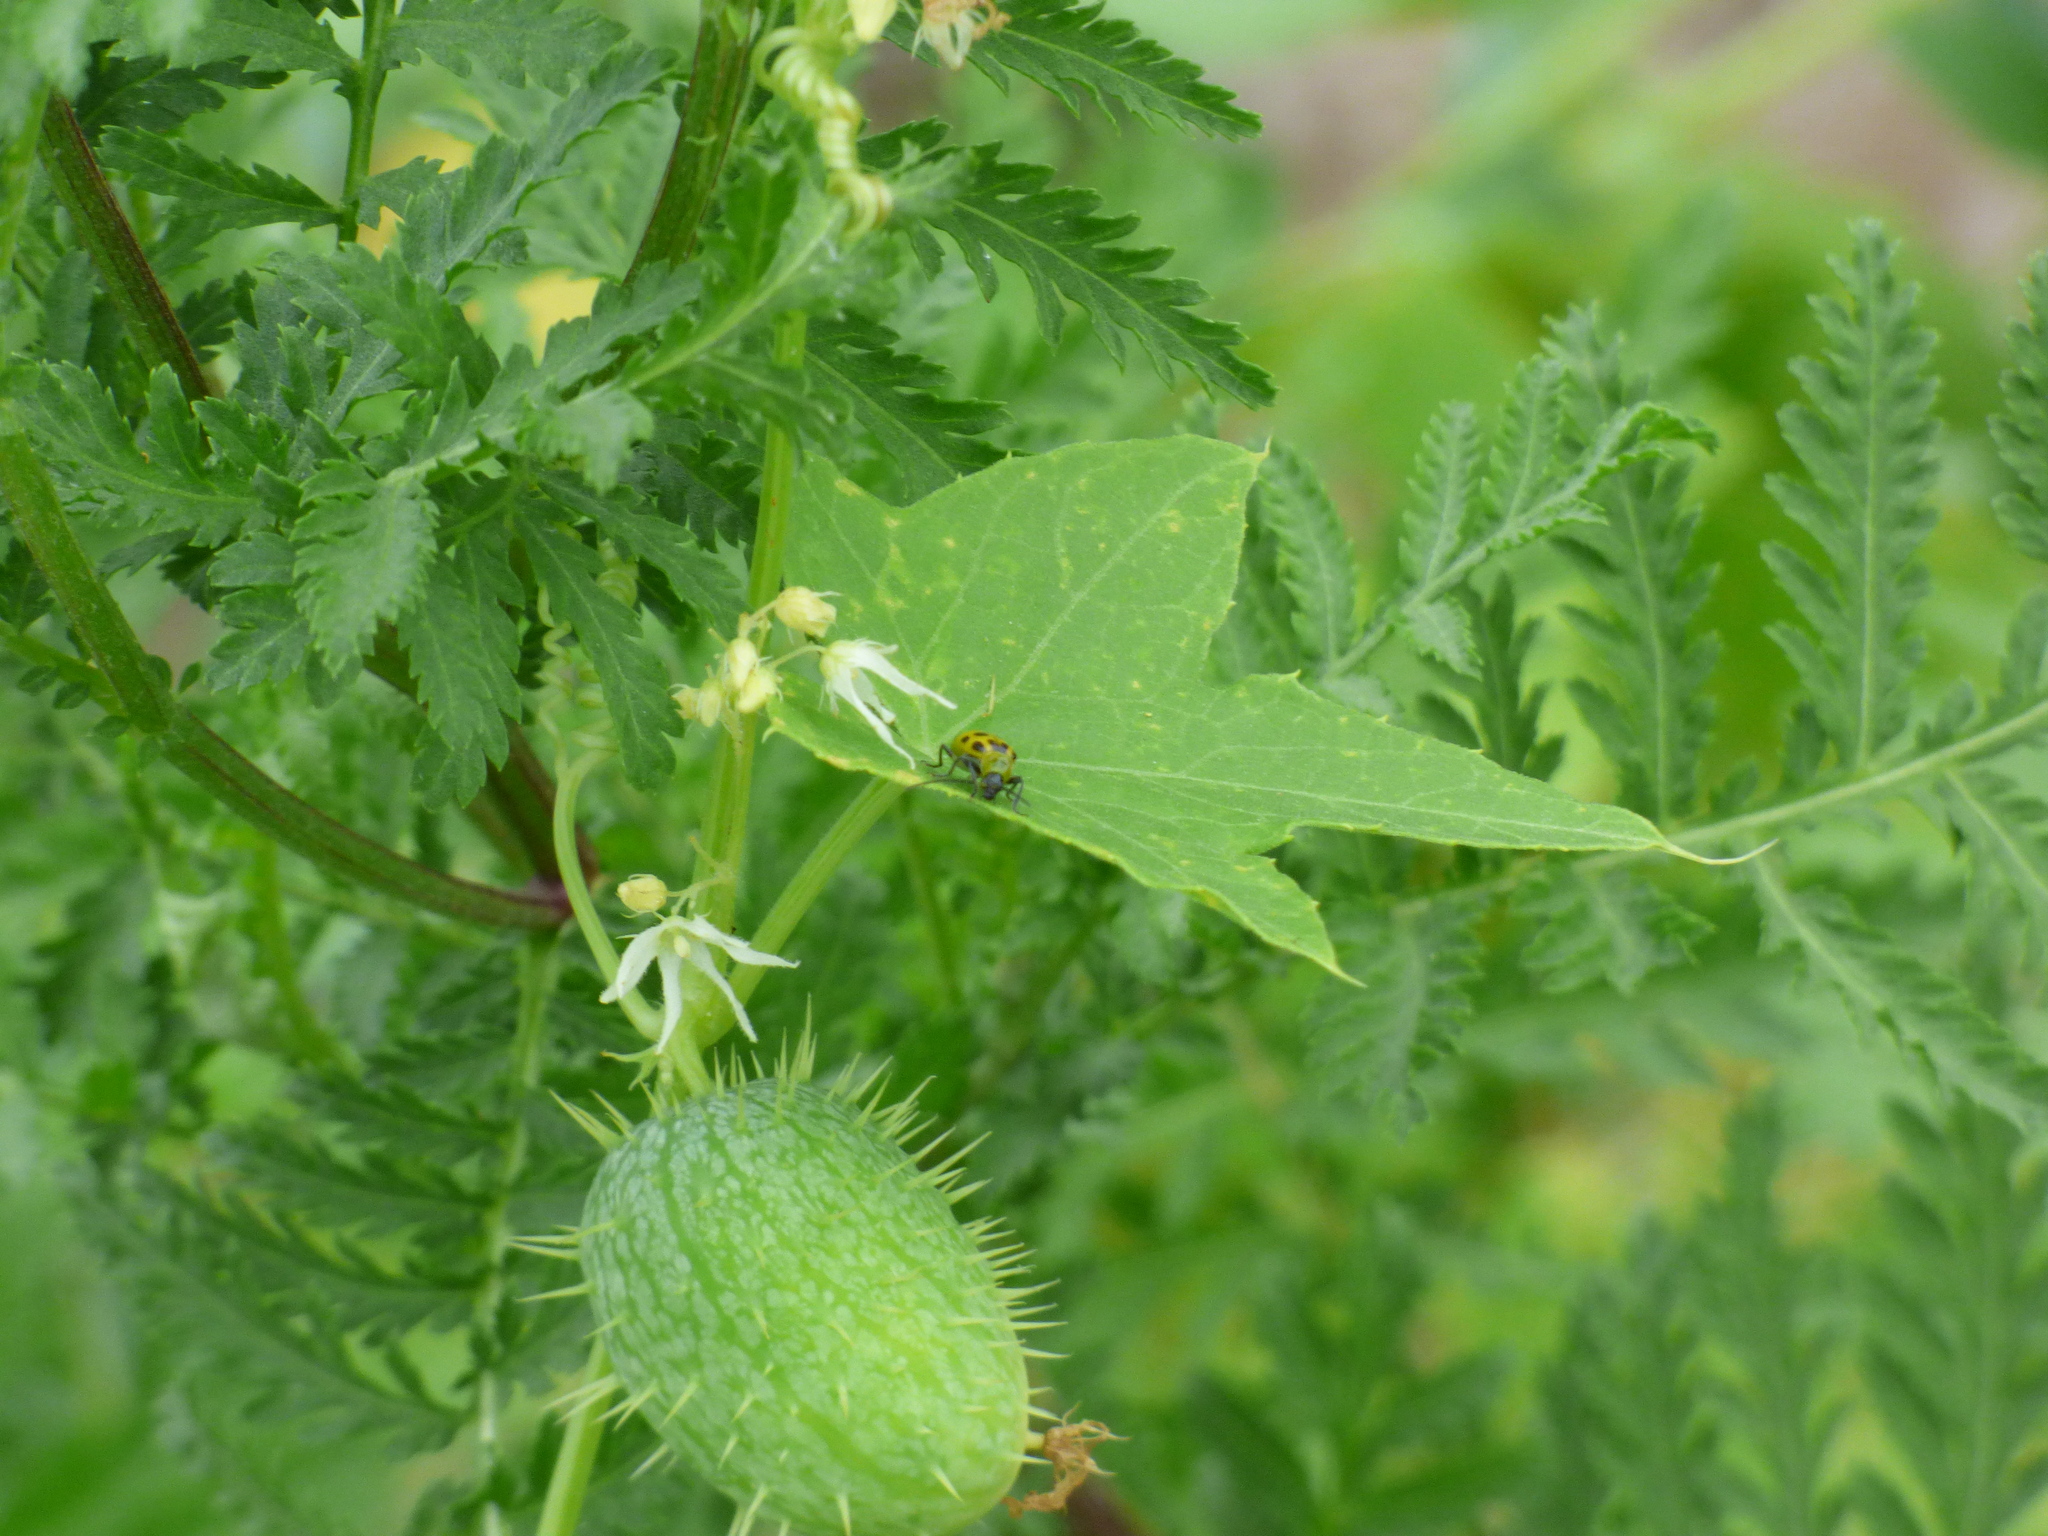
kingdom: Animalia
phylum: Arthropoda
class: Insecta
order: Coleoptera
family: Chrysomelidae
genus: Diabrotica
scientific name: Diabrotica undecimpunctata
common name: Spotted cucumber beetle
